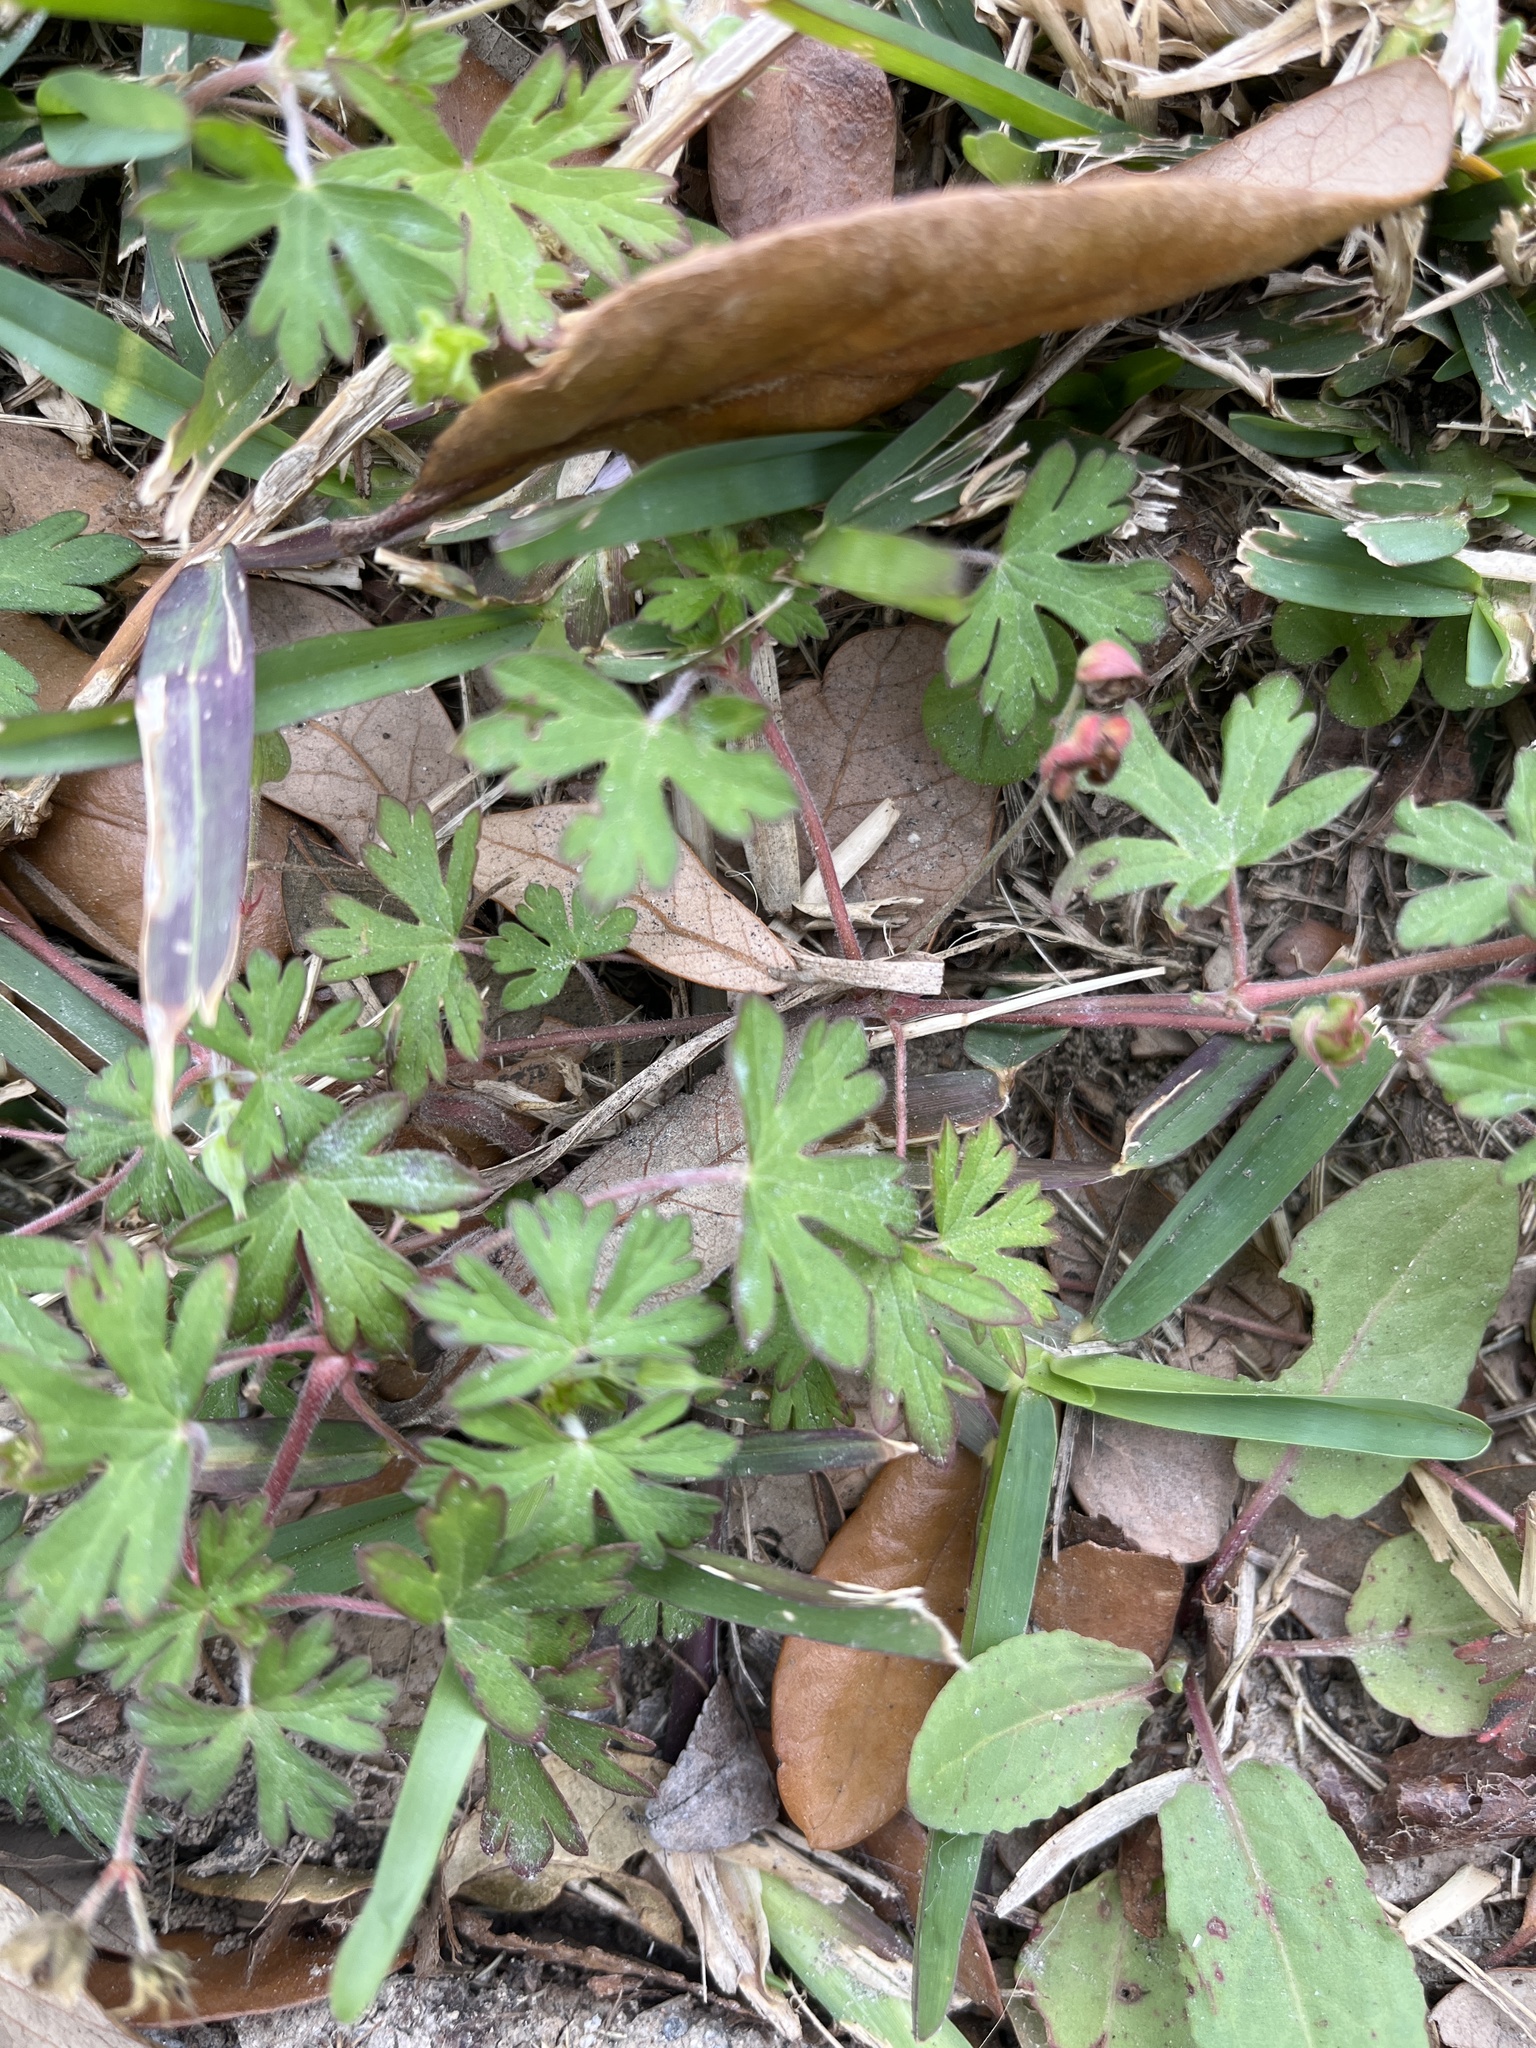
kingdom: Plantae
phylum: Tracheophyta
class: Magnoliopsida
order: Geraniales
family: Geraniaceae
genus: Geranium
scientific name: Geranium carolinianum
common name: Carolina crane's-bill
